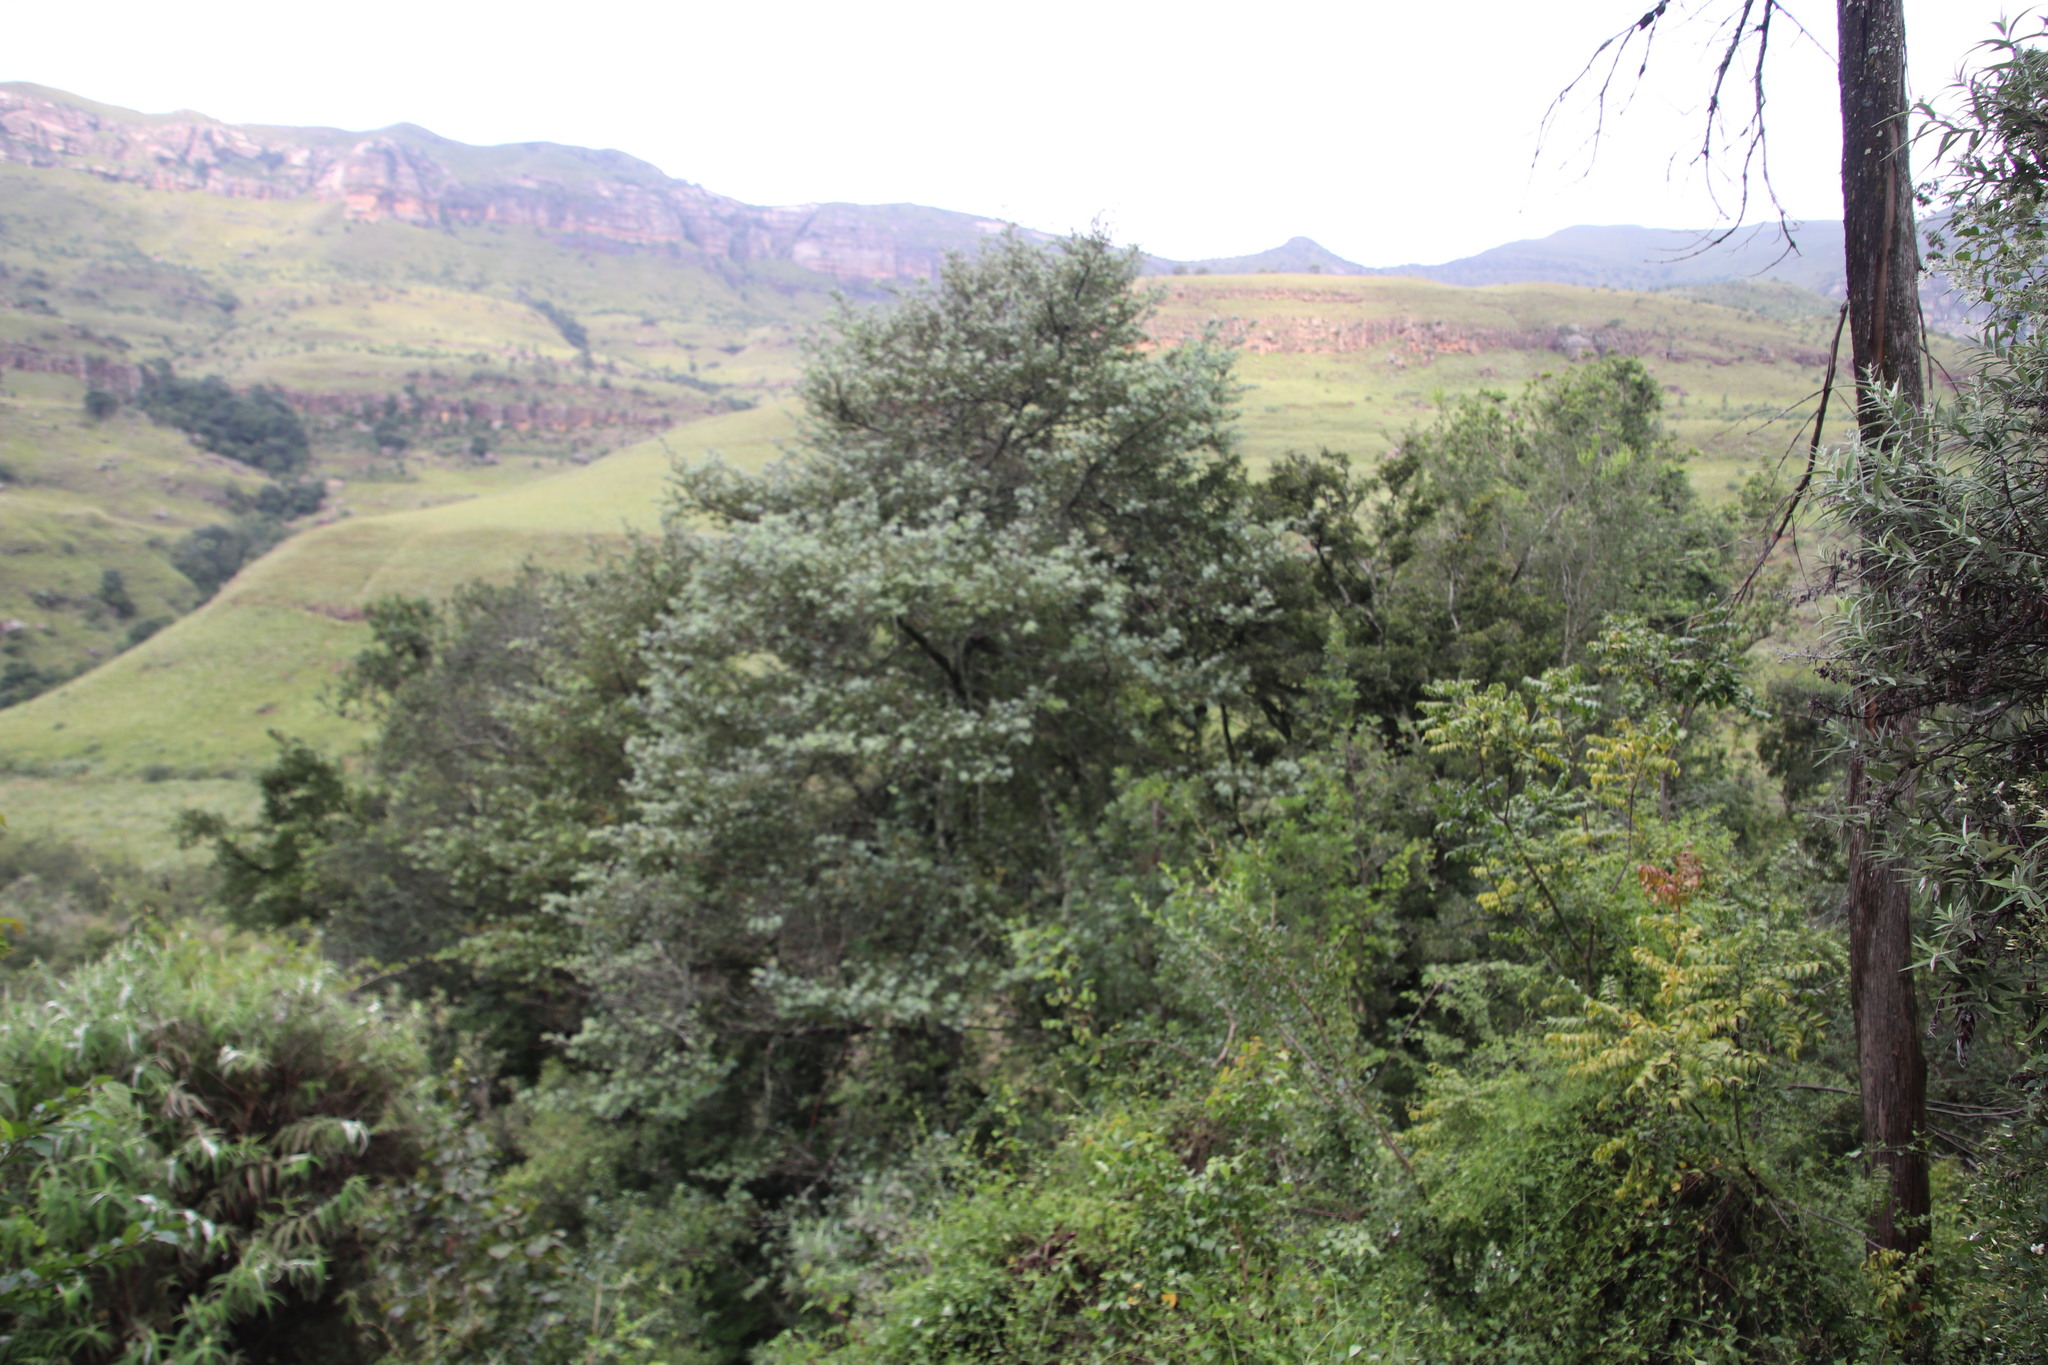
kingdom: Plantae
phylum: Tracheophyta
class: Pinopsida
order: Pinales
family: Podocarpaceae
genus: Podocarpus
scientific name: Podocarpus latifolius
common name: True yellowwood
